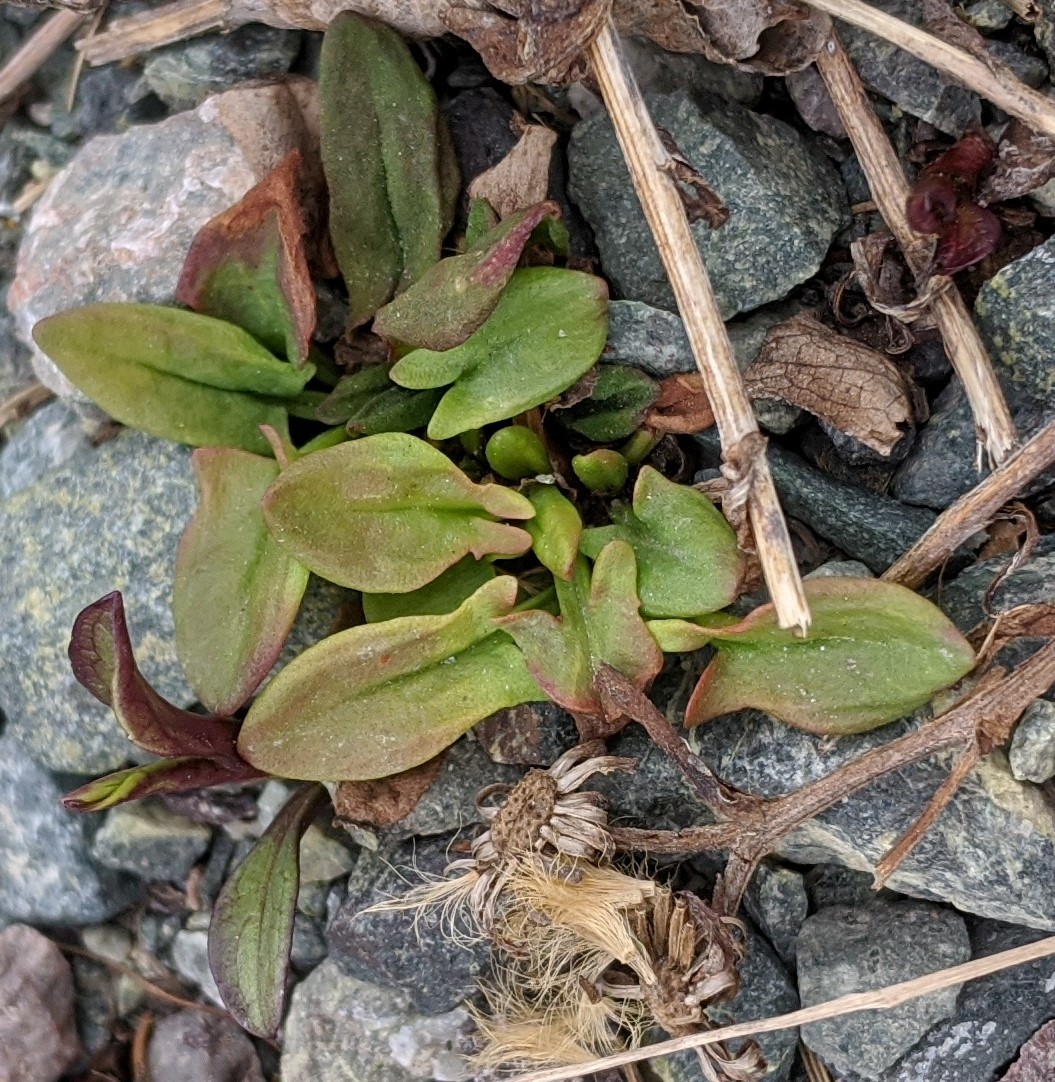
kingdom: Plantae
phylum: Tracheophyta
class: Magnoliopsida
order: Caryophyllales
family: Polygonaceae
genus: Rumex
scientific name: Rumex acetosella
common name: Common sheep sorrel
